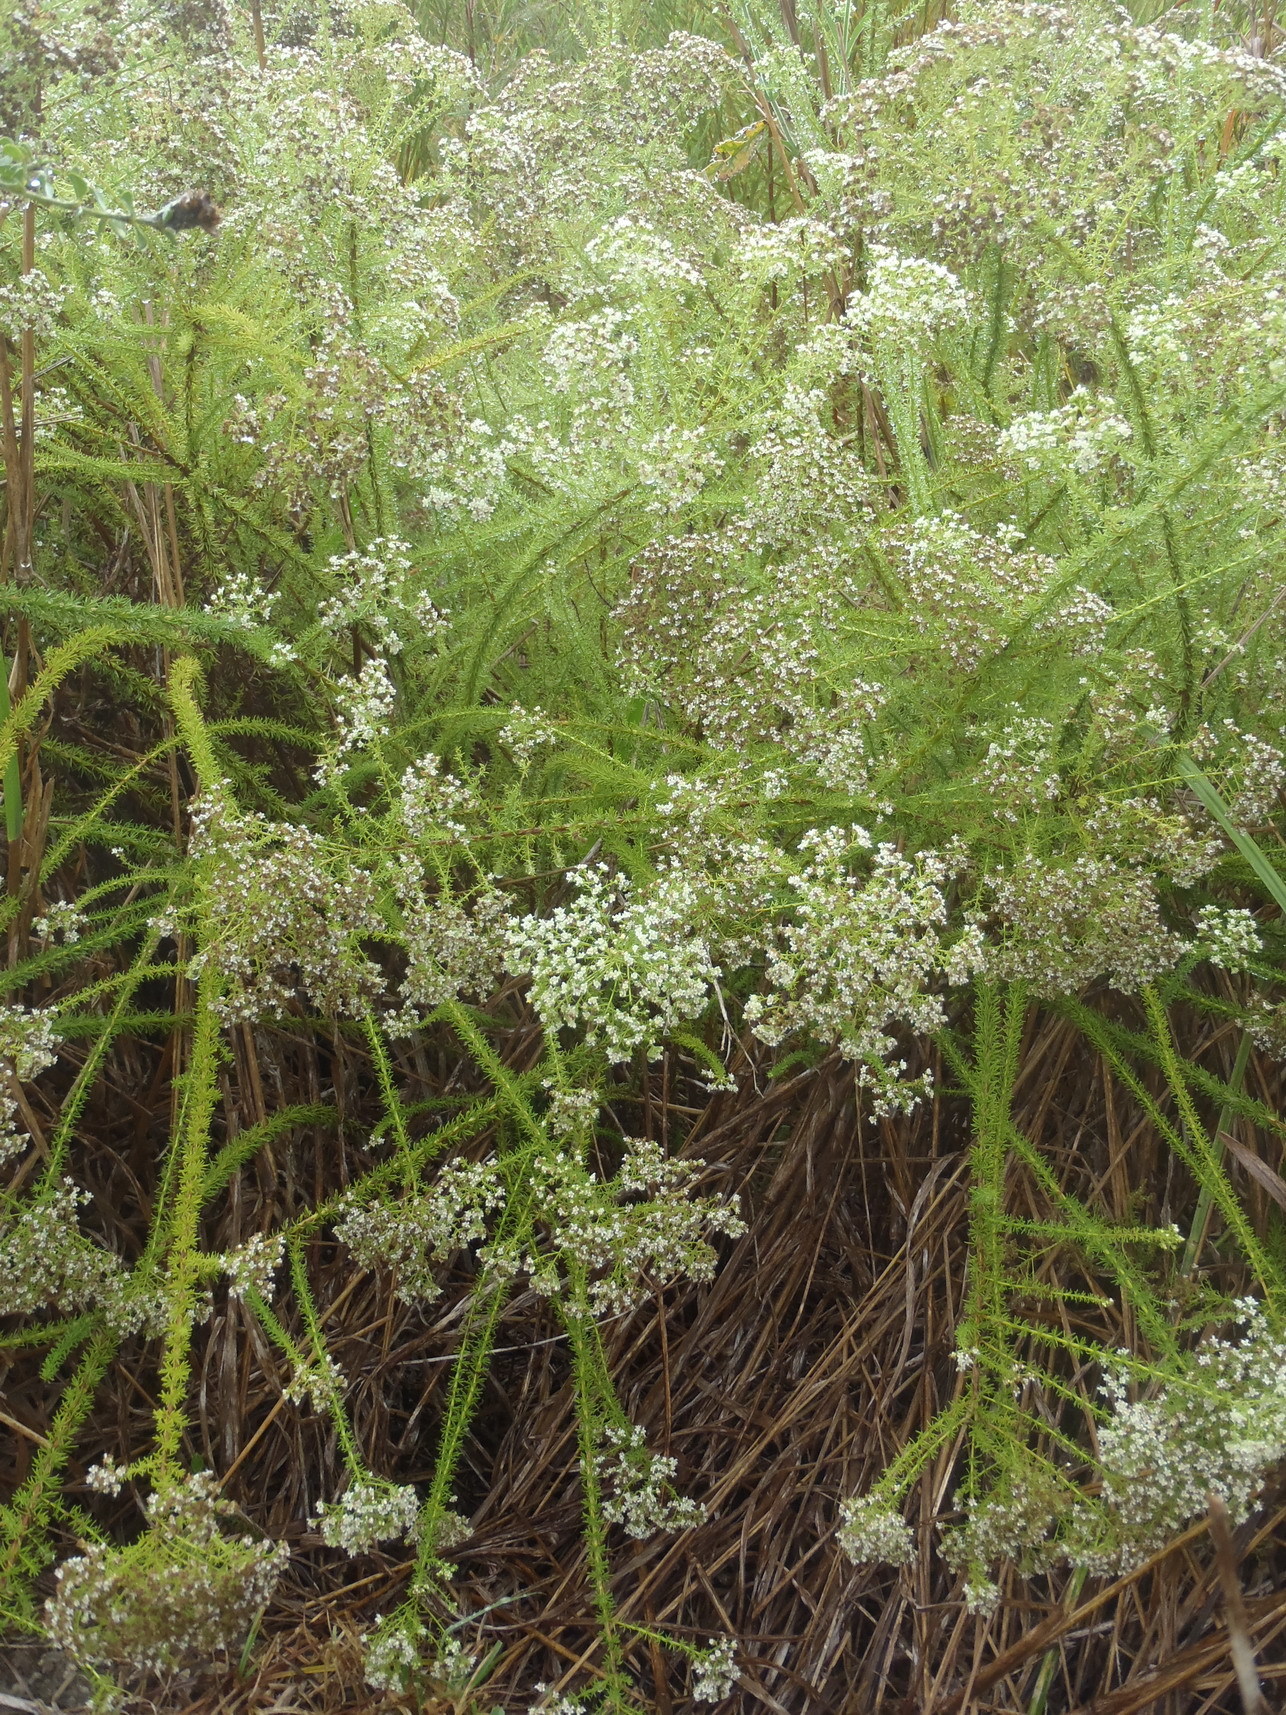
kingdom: Plantae
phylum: Tracheophyta
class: Magnoliopsida
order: Lamiales
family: Scrophulariaceae
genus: Selago
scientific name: Selago corymbosa
